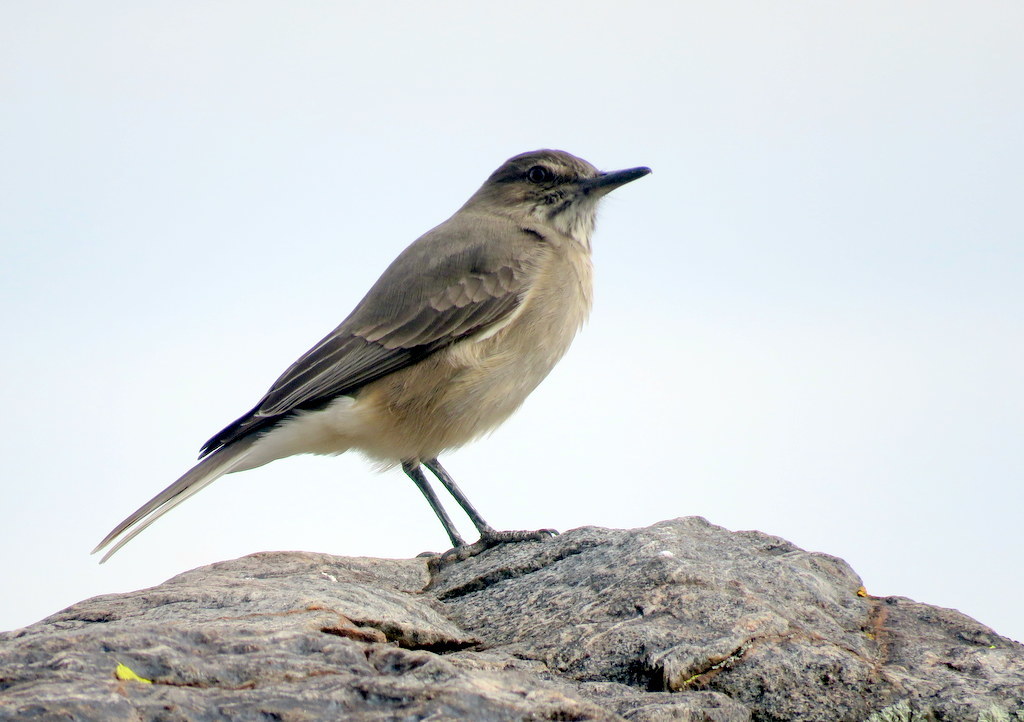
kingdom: Animalia
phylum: Chordata
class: Aves
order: Passeriformes
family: Tyrannidae
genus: Agriornis
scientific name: Agriornis montanus
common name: Black-billed shrike-tyrant
